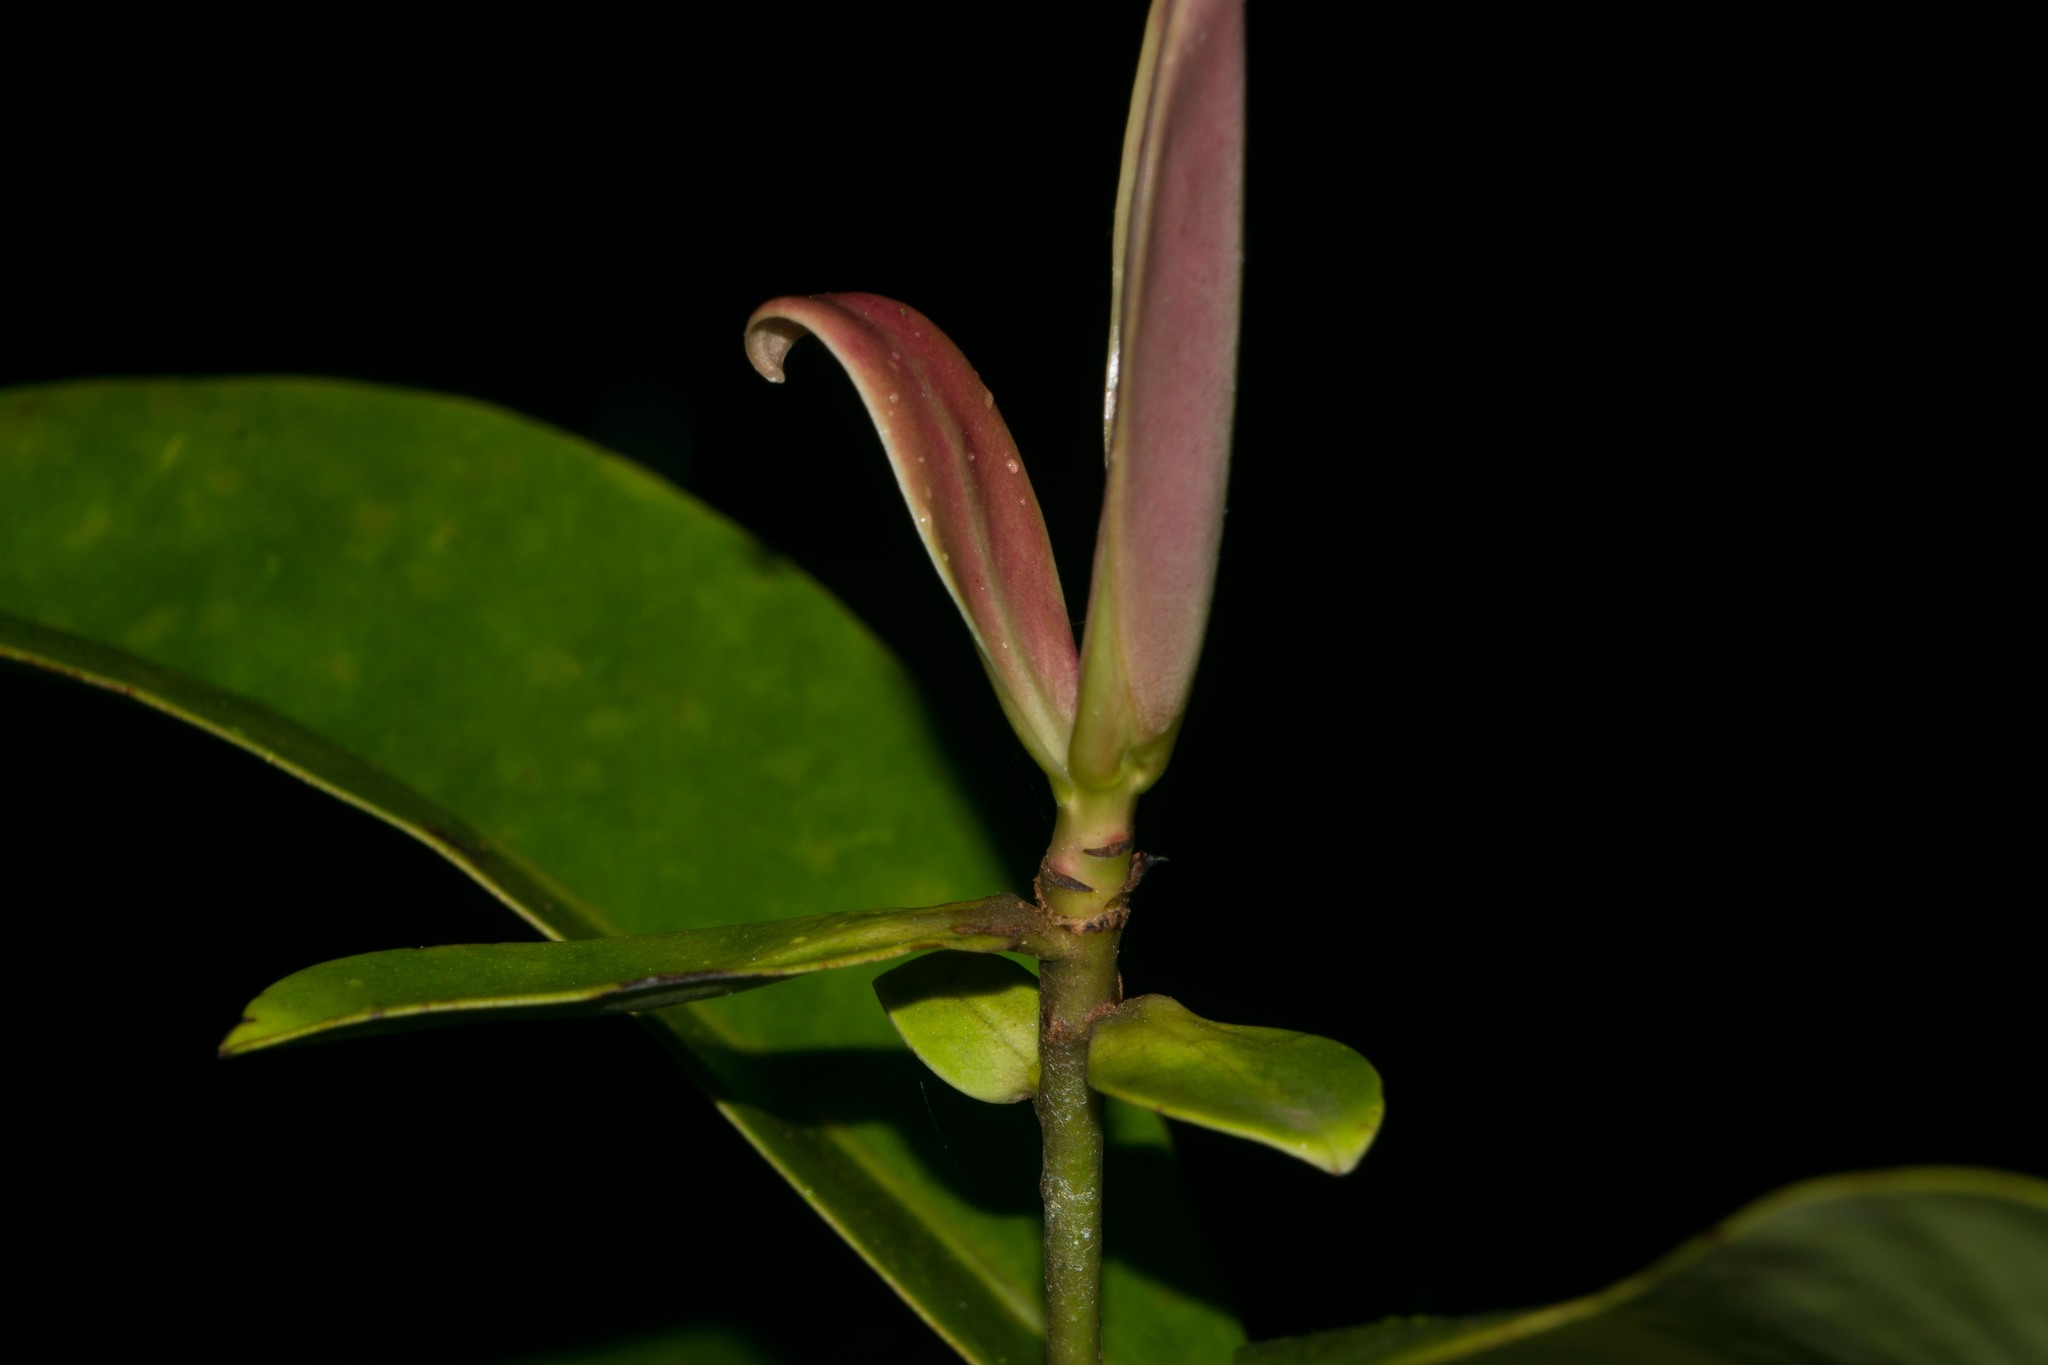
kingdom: Plantae
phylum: Tracheophyta
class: Magnoliopsida
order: Ericales
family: Primulaceae
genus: Myrsine
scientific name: Myrsine lessertiana
